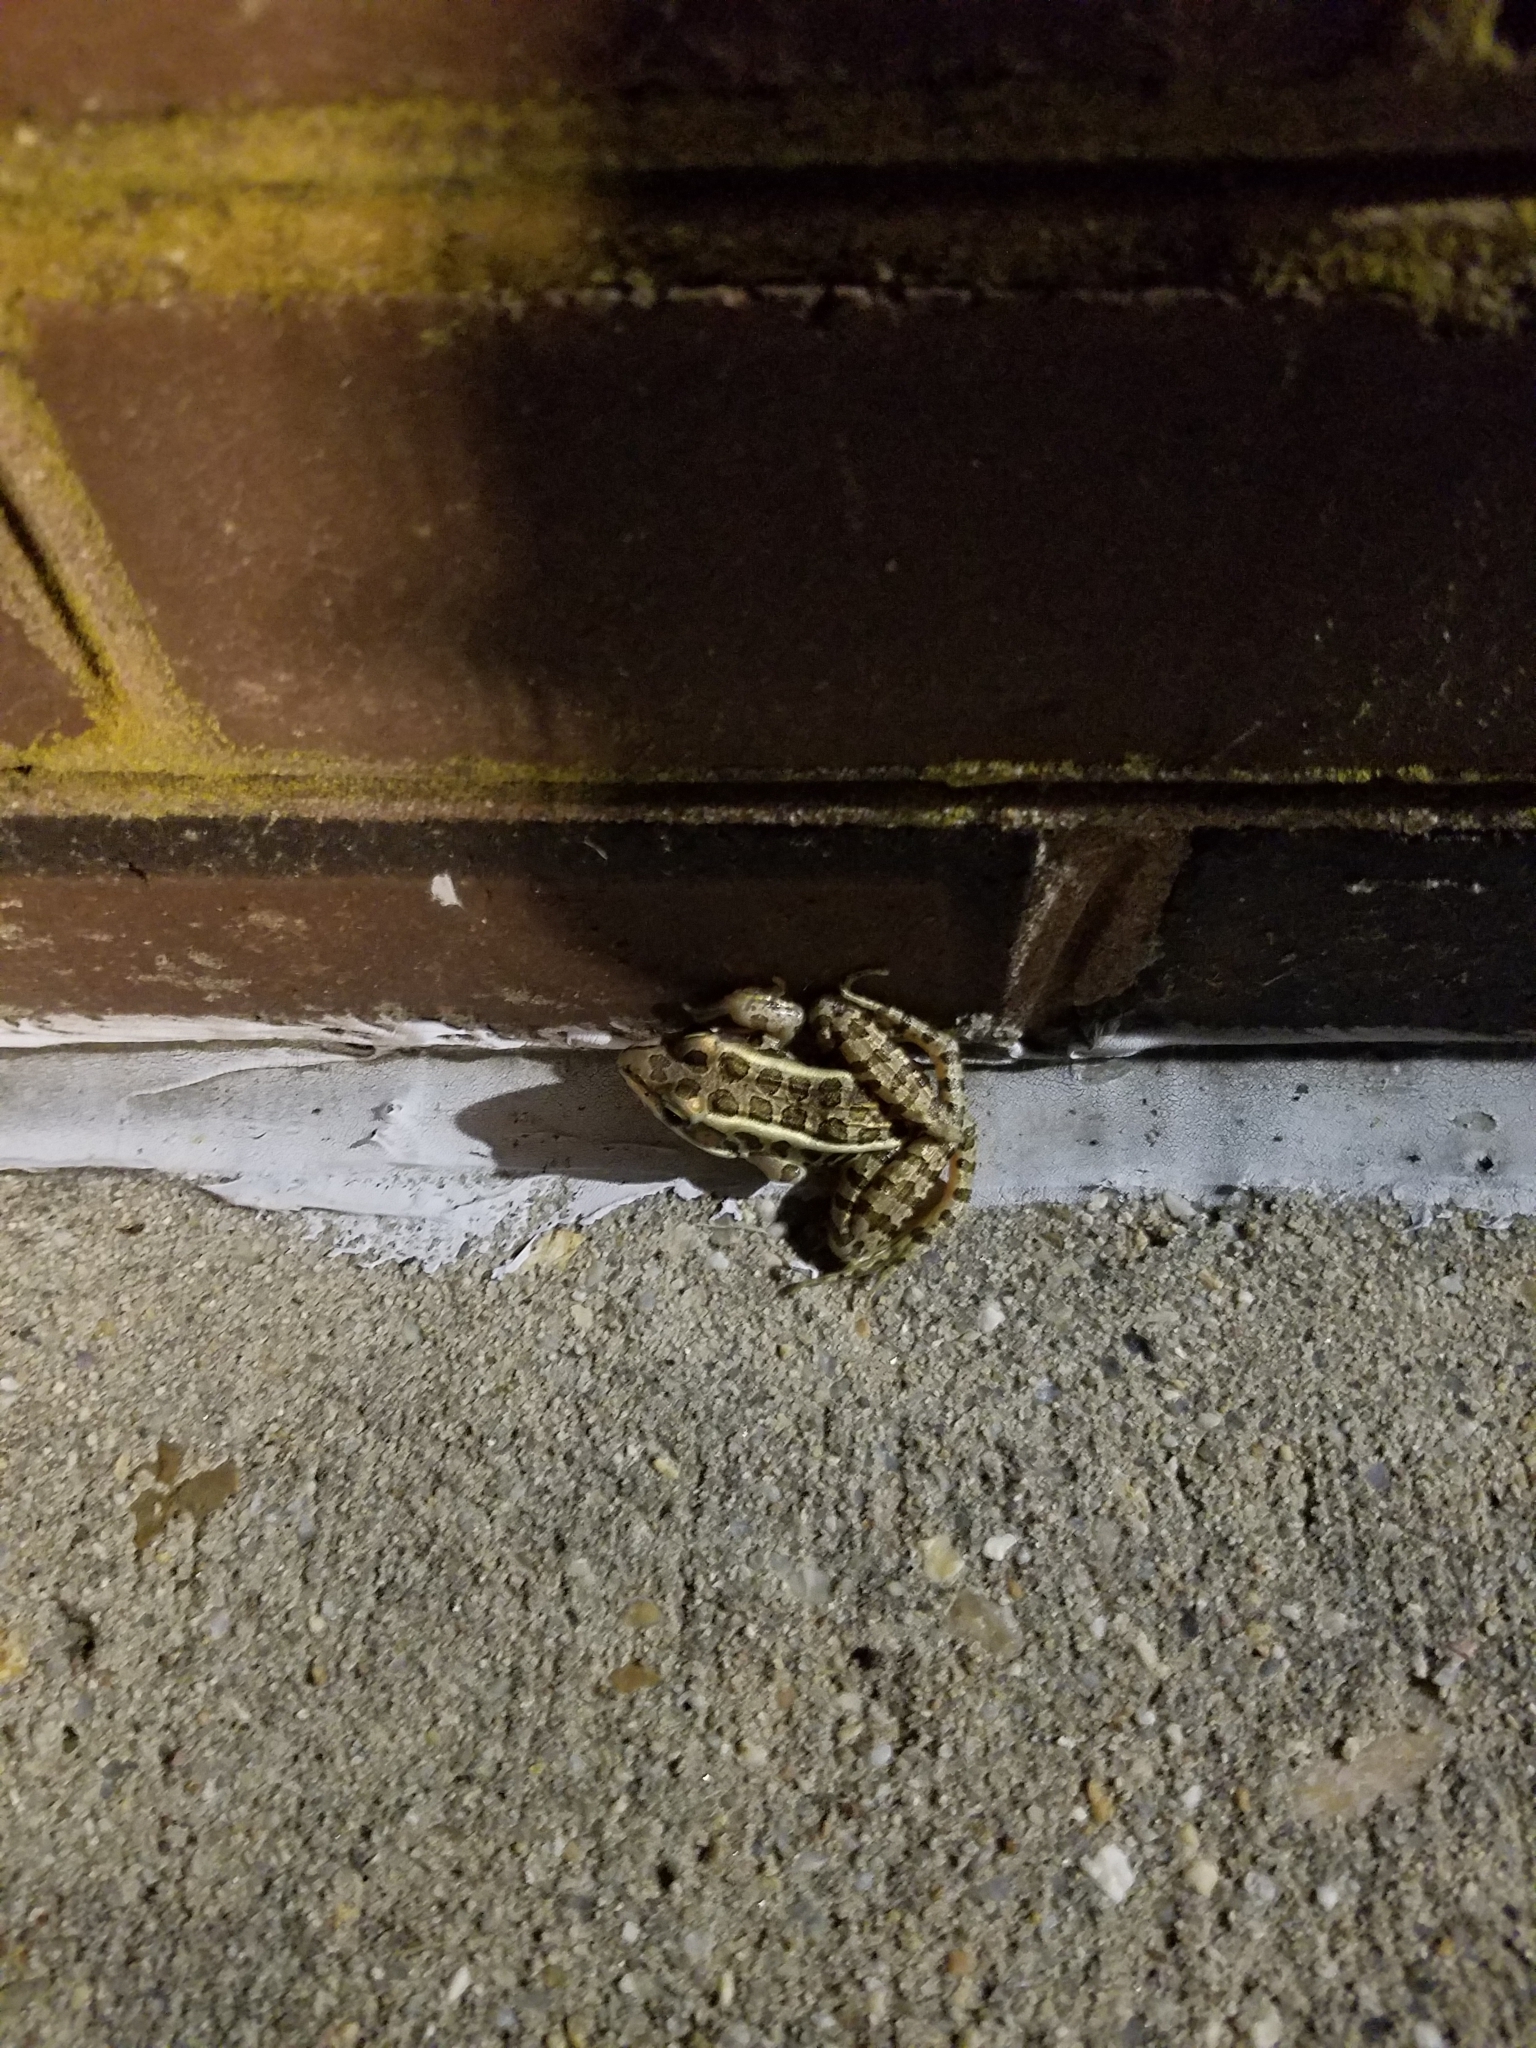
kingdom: Animalia
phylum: Chordata
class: Amphibia
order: Anura
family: Ranidae
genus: Lithobates
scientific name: Lithobates palustris
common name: Pickerel frog
